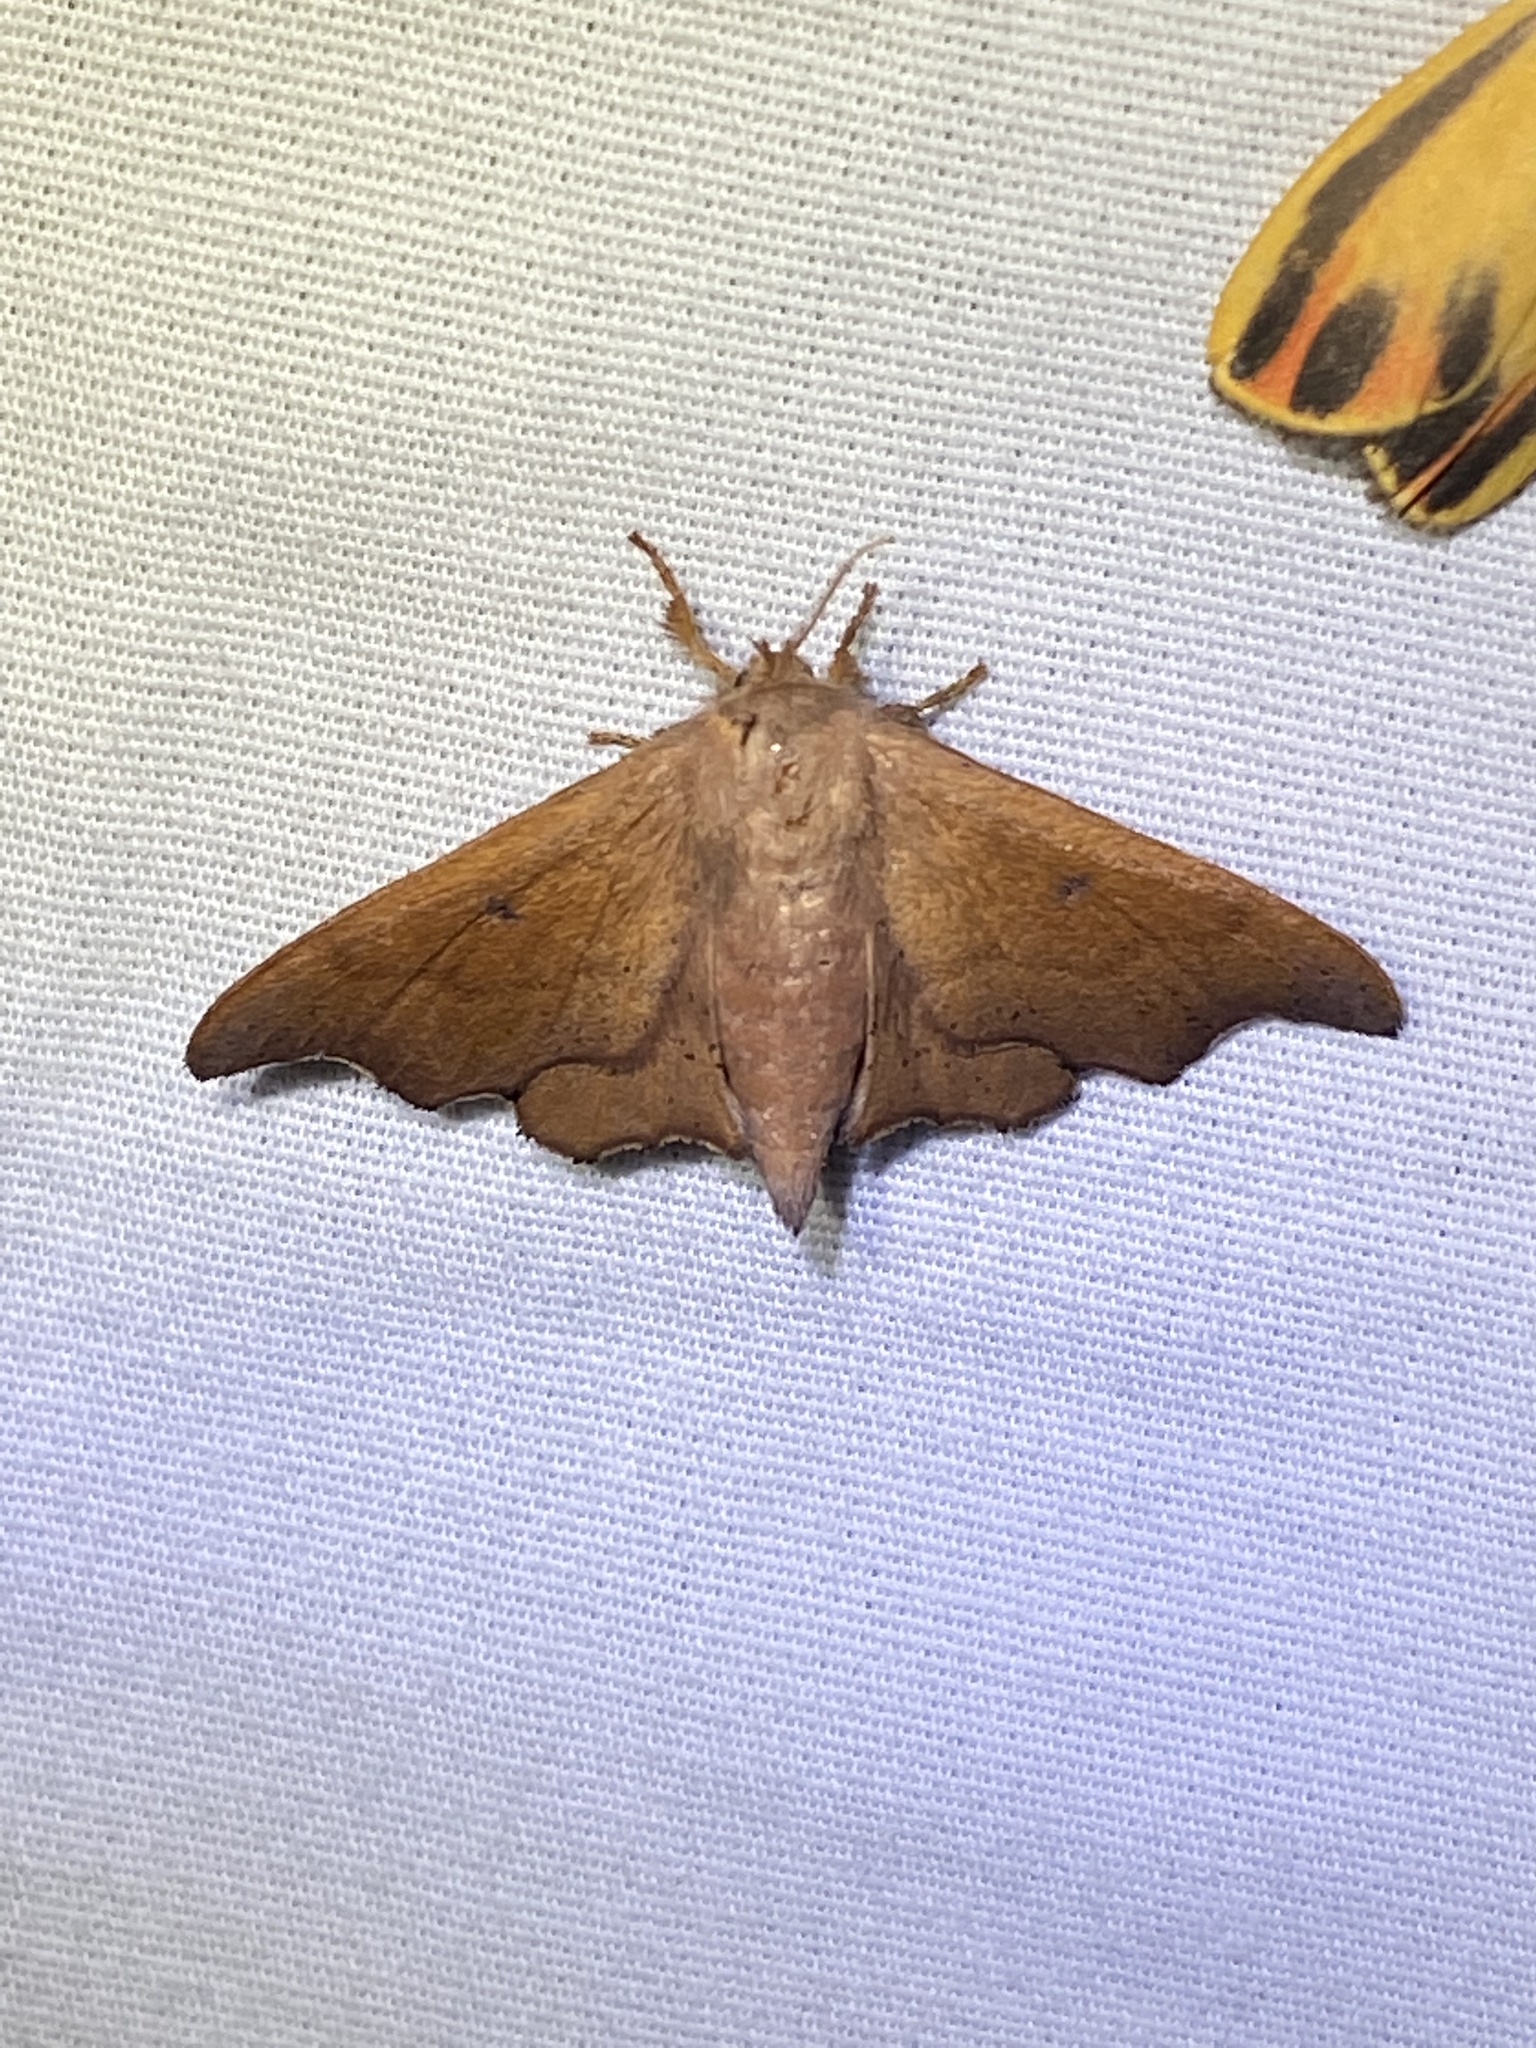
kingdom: Animalia
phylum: Arthropoda
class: Insecta
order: Lepidoptera
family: Mimallonidae
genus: Lacosoma
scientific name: Lacosoma chiridota
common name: Scalloped sack-bearer moth
